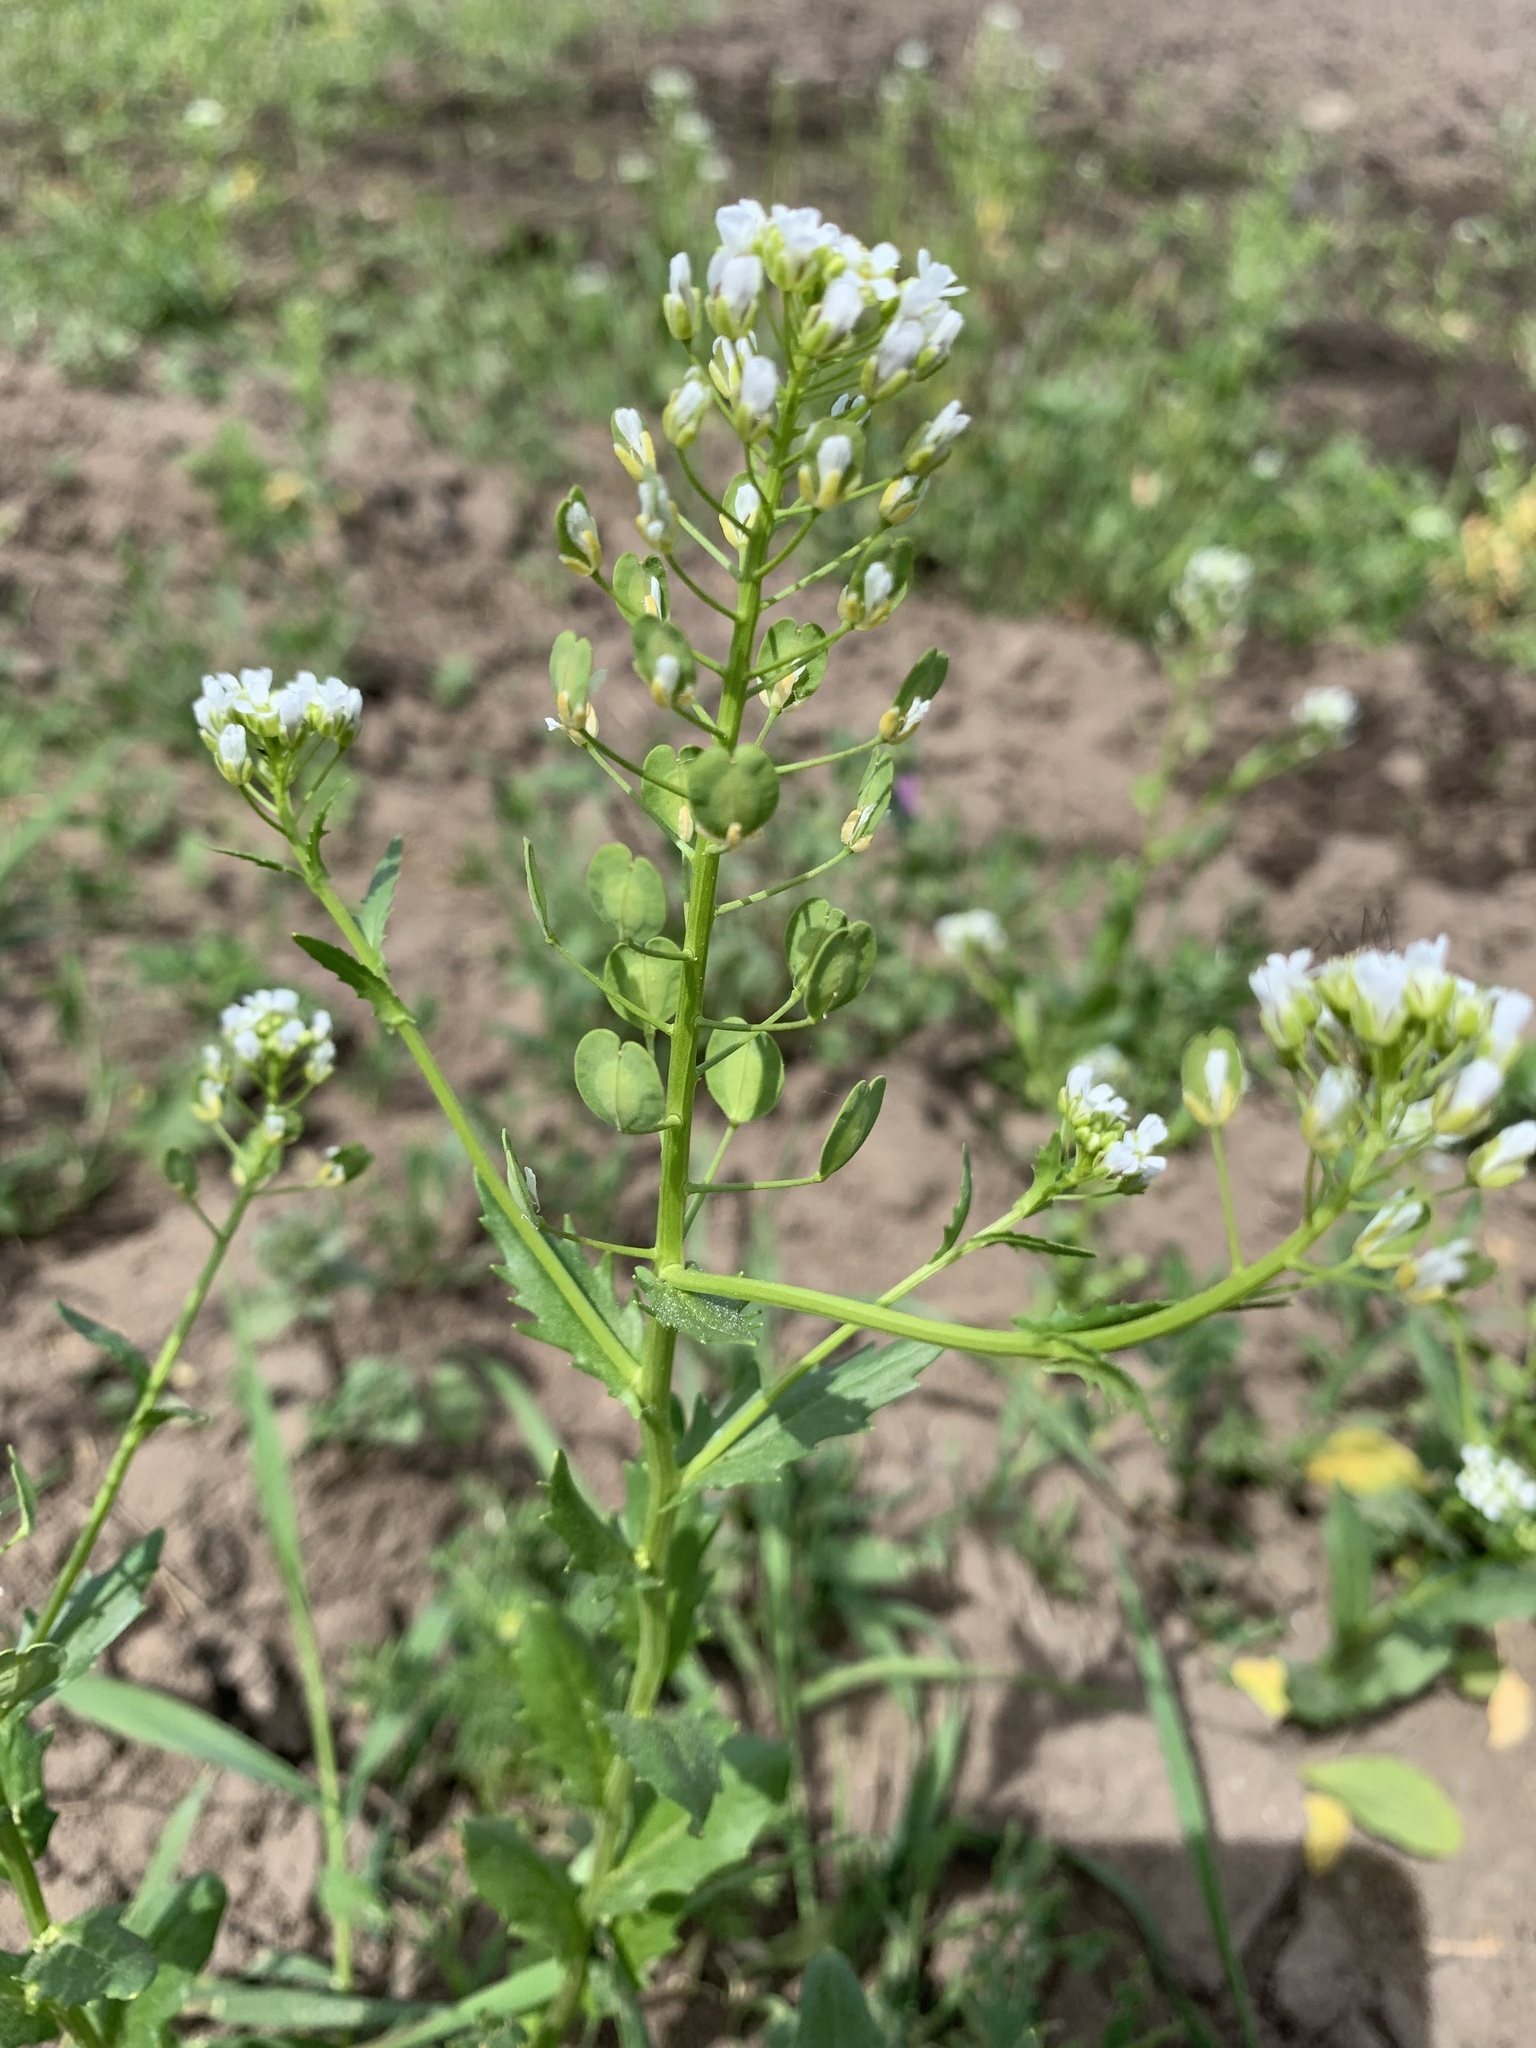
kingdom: Plantae
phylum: Tracheophyta
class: Magnoliopsida
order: Brassicales
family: Brassicaceae
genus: Thlaspi
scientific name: Thlaspi arvense
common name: Field pennycress
